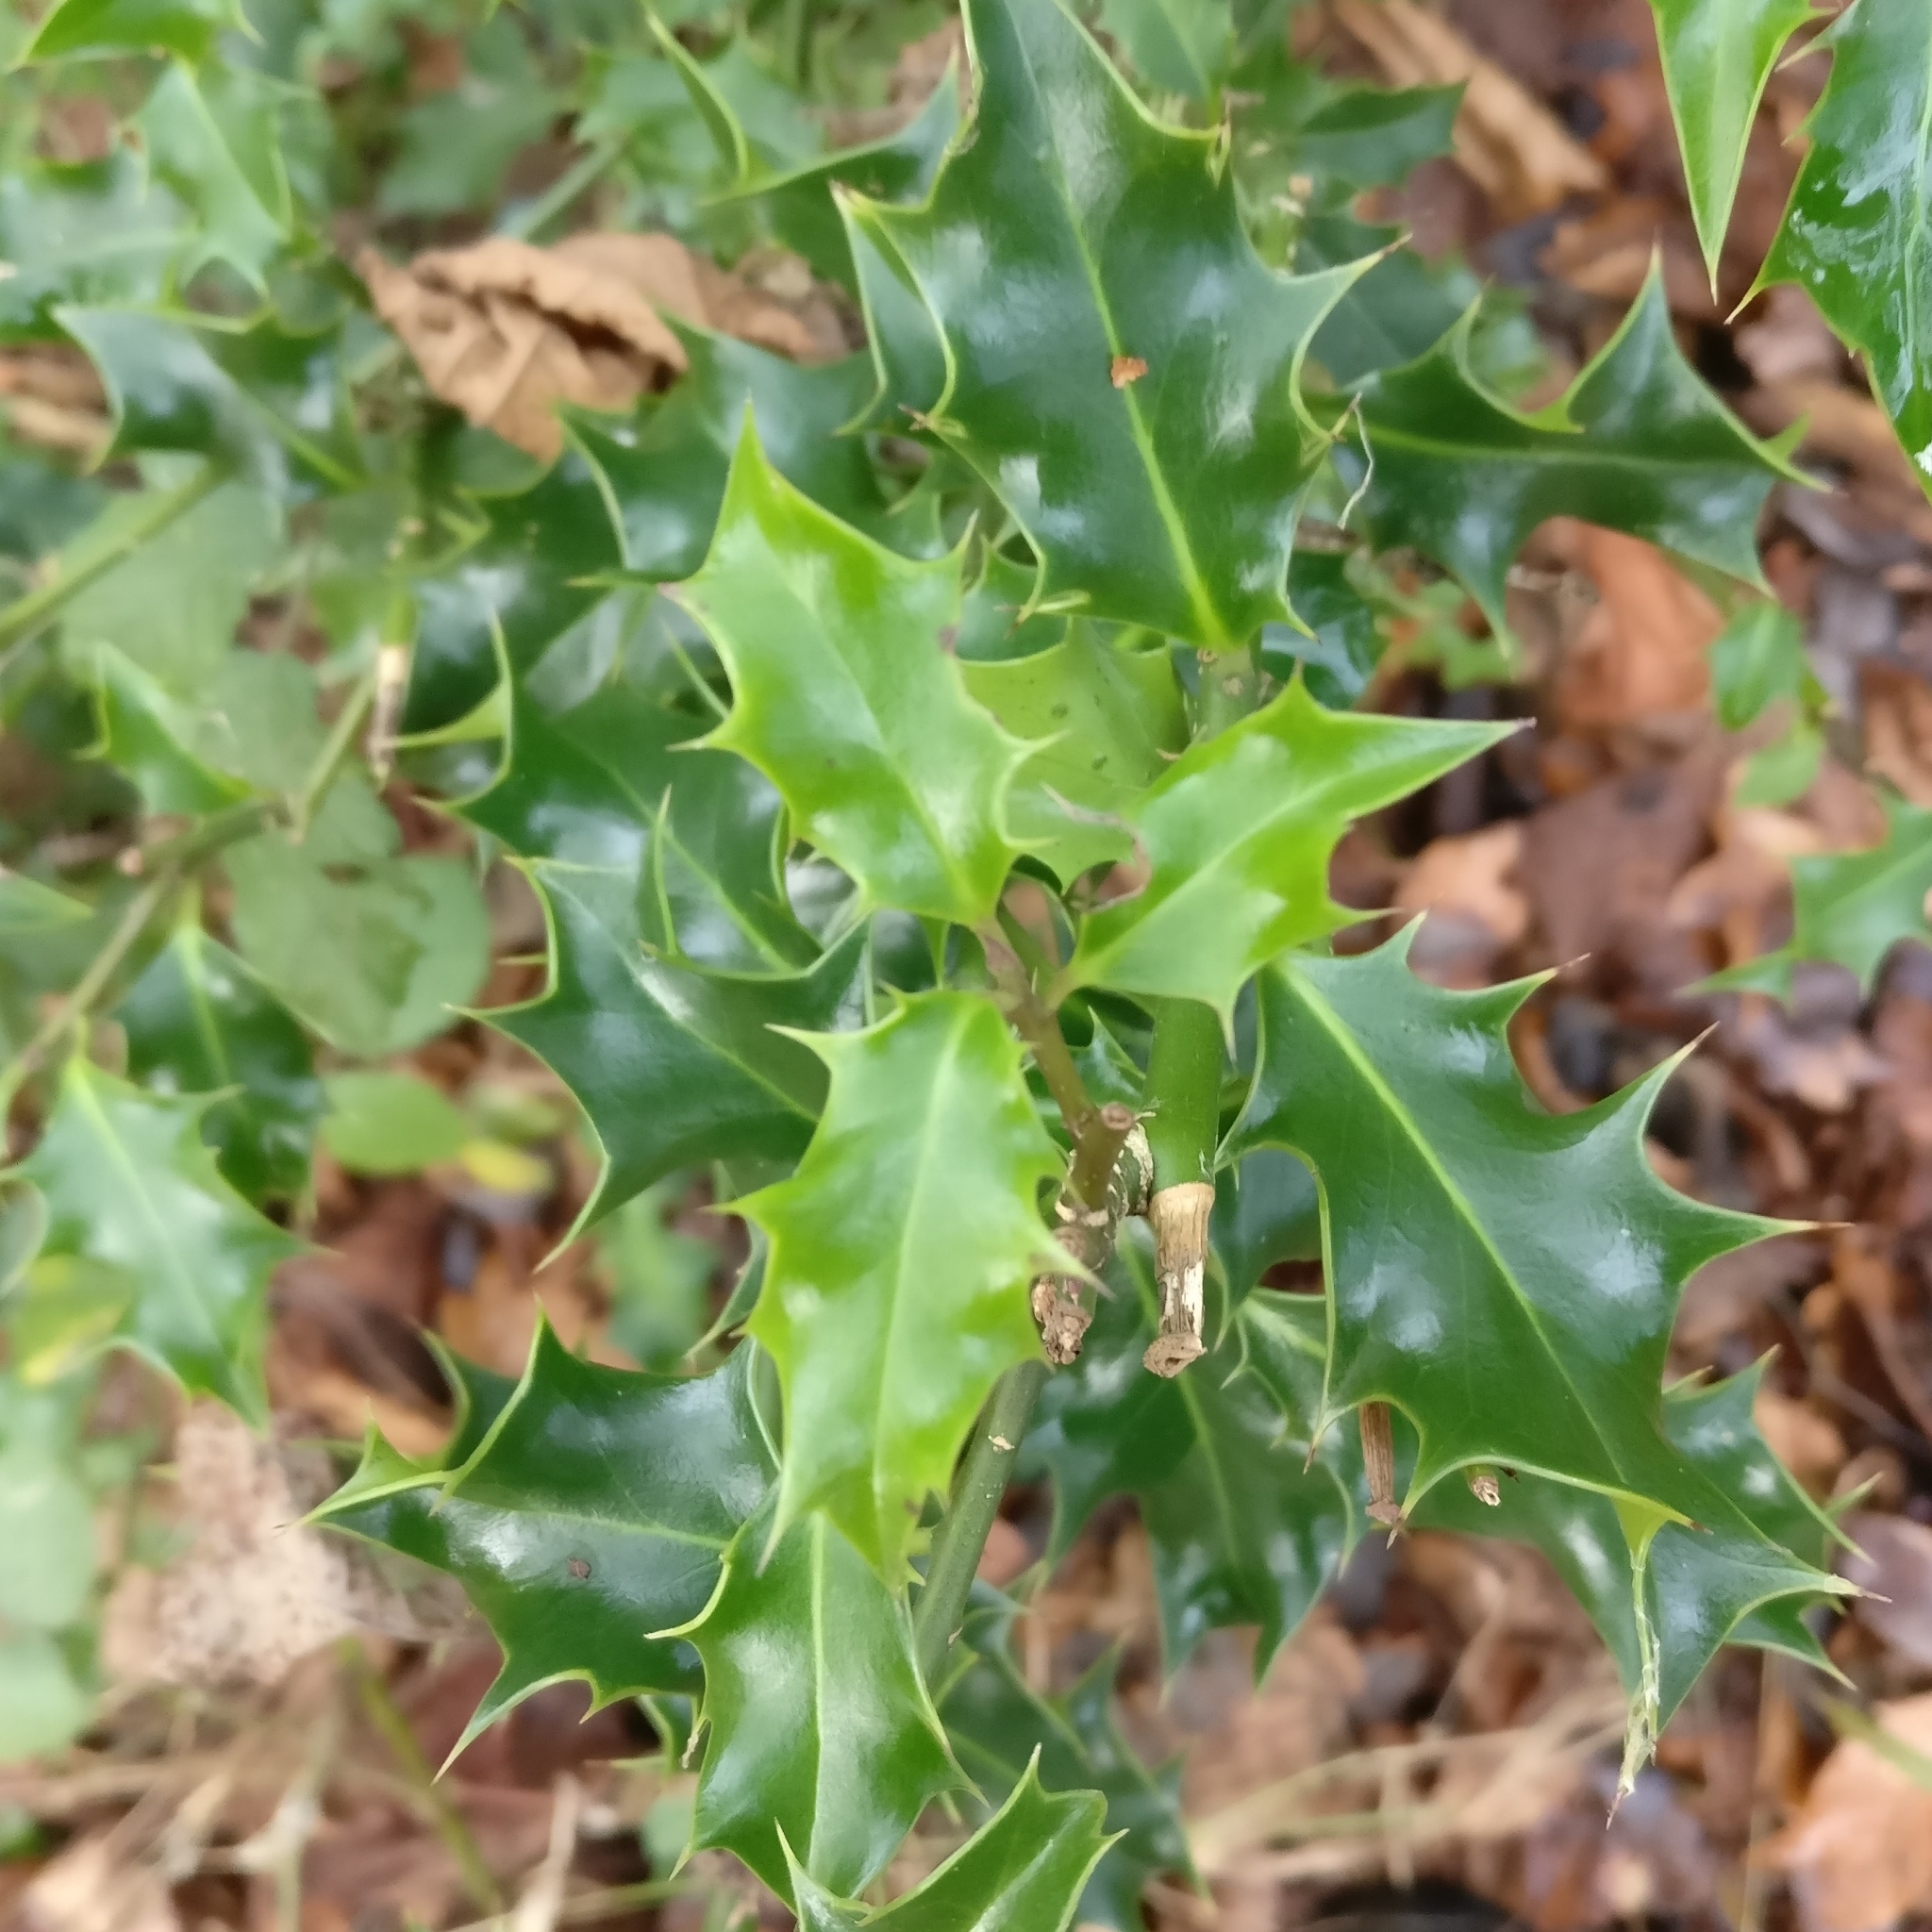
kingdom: Plantae
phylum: Tracheophyta
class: Magnoliopsida
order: Aquifoliales
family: Aquifoliaceae
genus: Ilex
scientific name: Ilex aquifolium
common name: English holly
